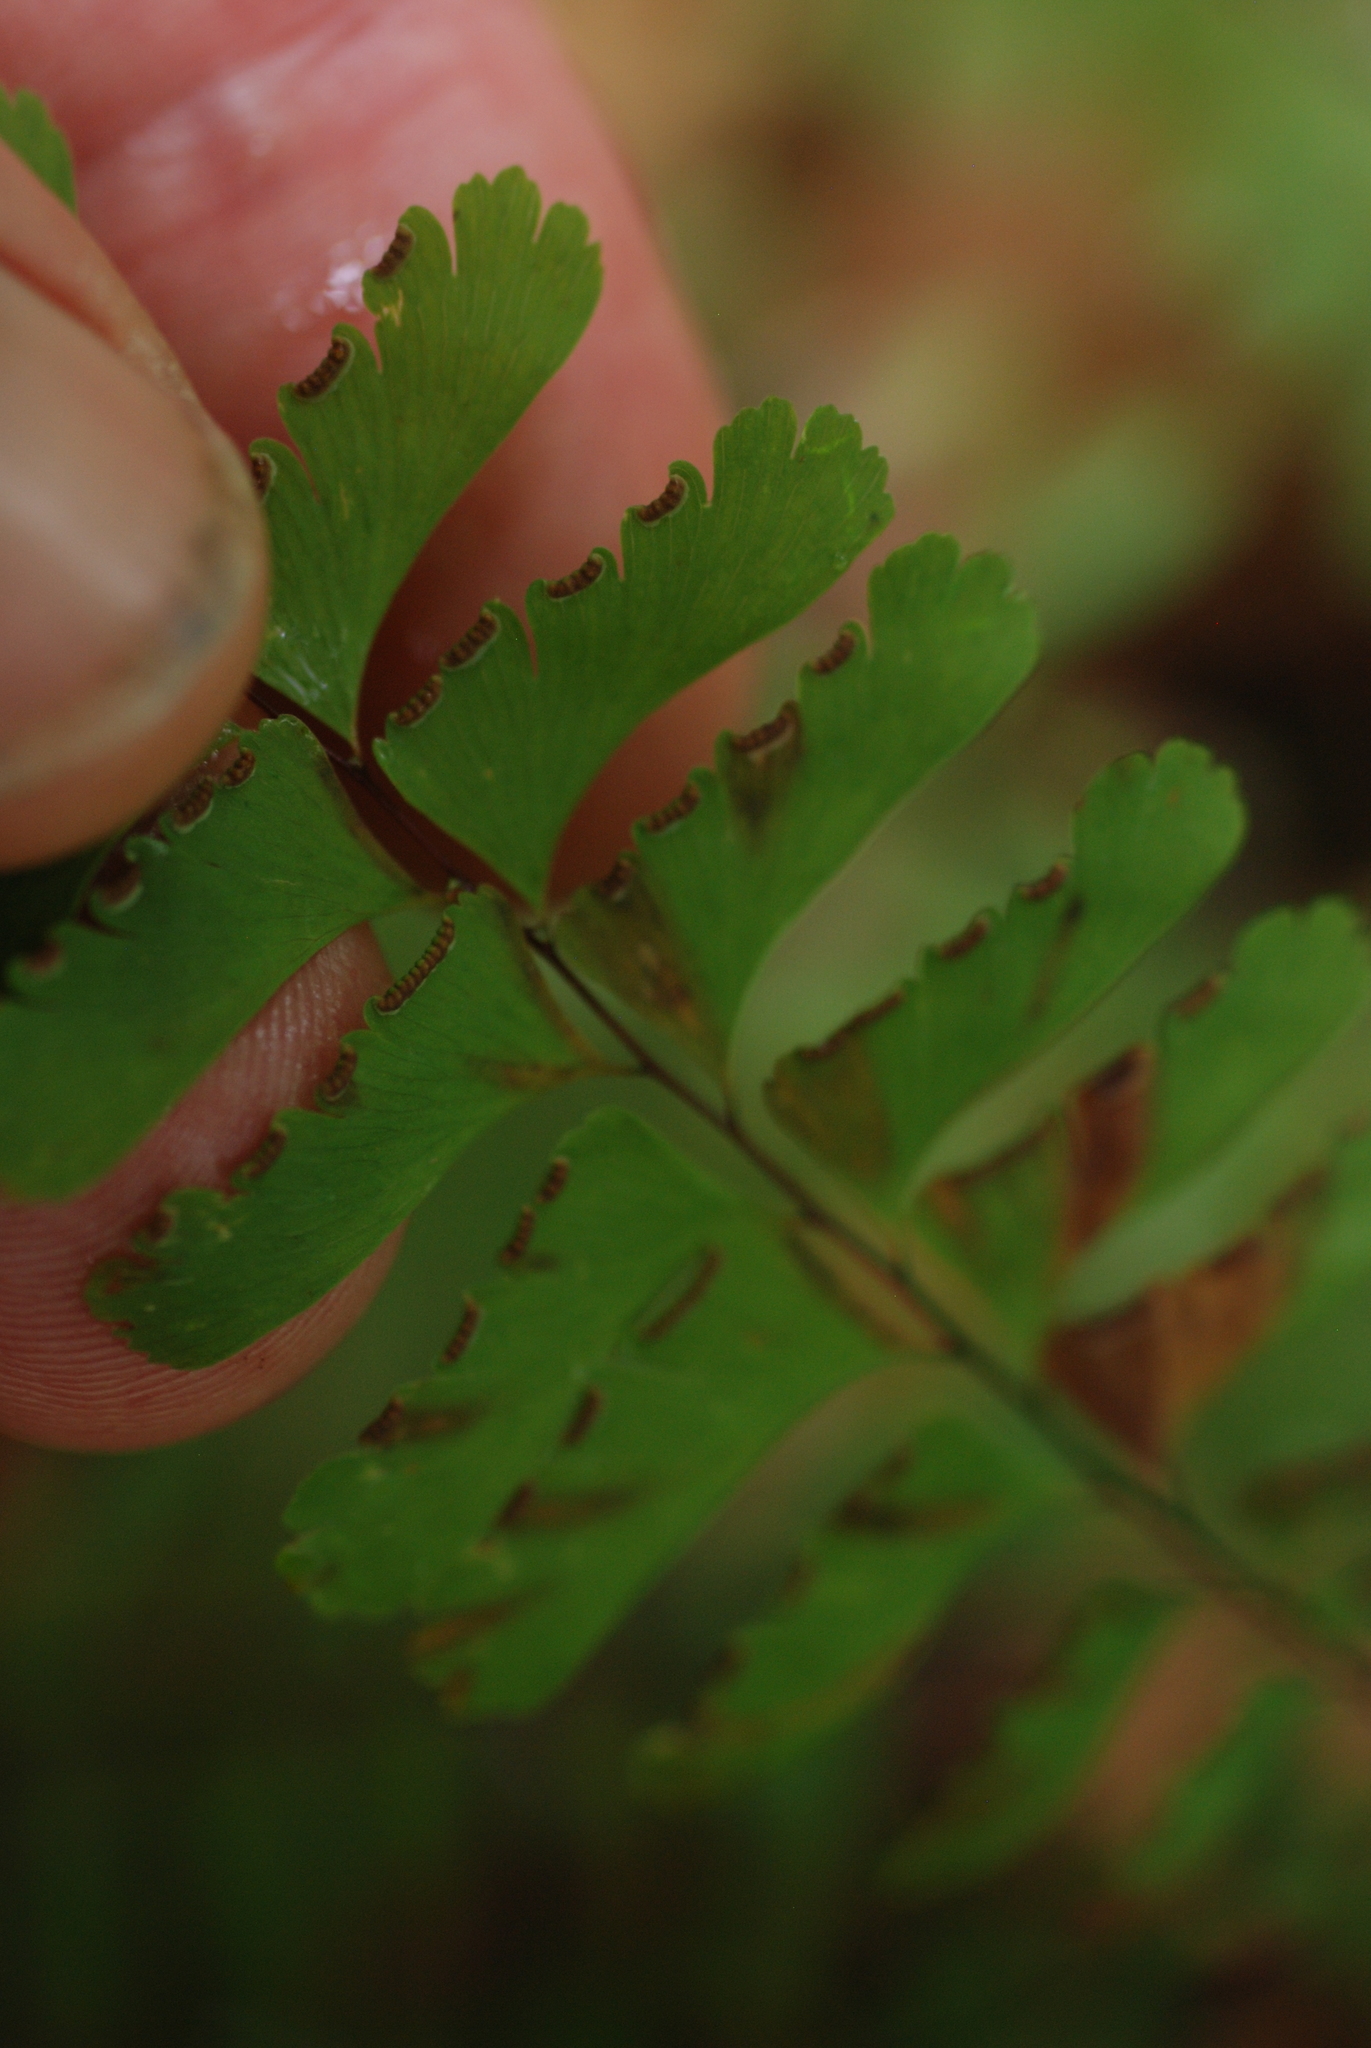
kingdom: Plantae
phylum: Tracheophyta
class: Polypodiopsida
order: Polypodiales
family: Pteridaceae
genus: Adiantum
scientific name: Adiantum pedatum
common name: Five-finger fern
